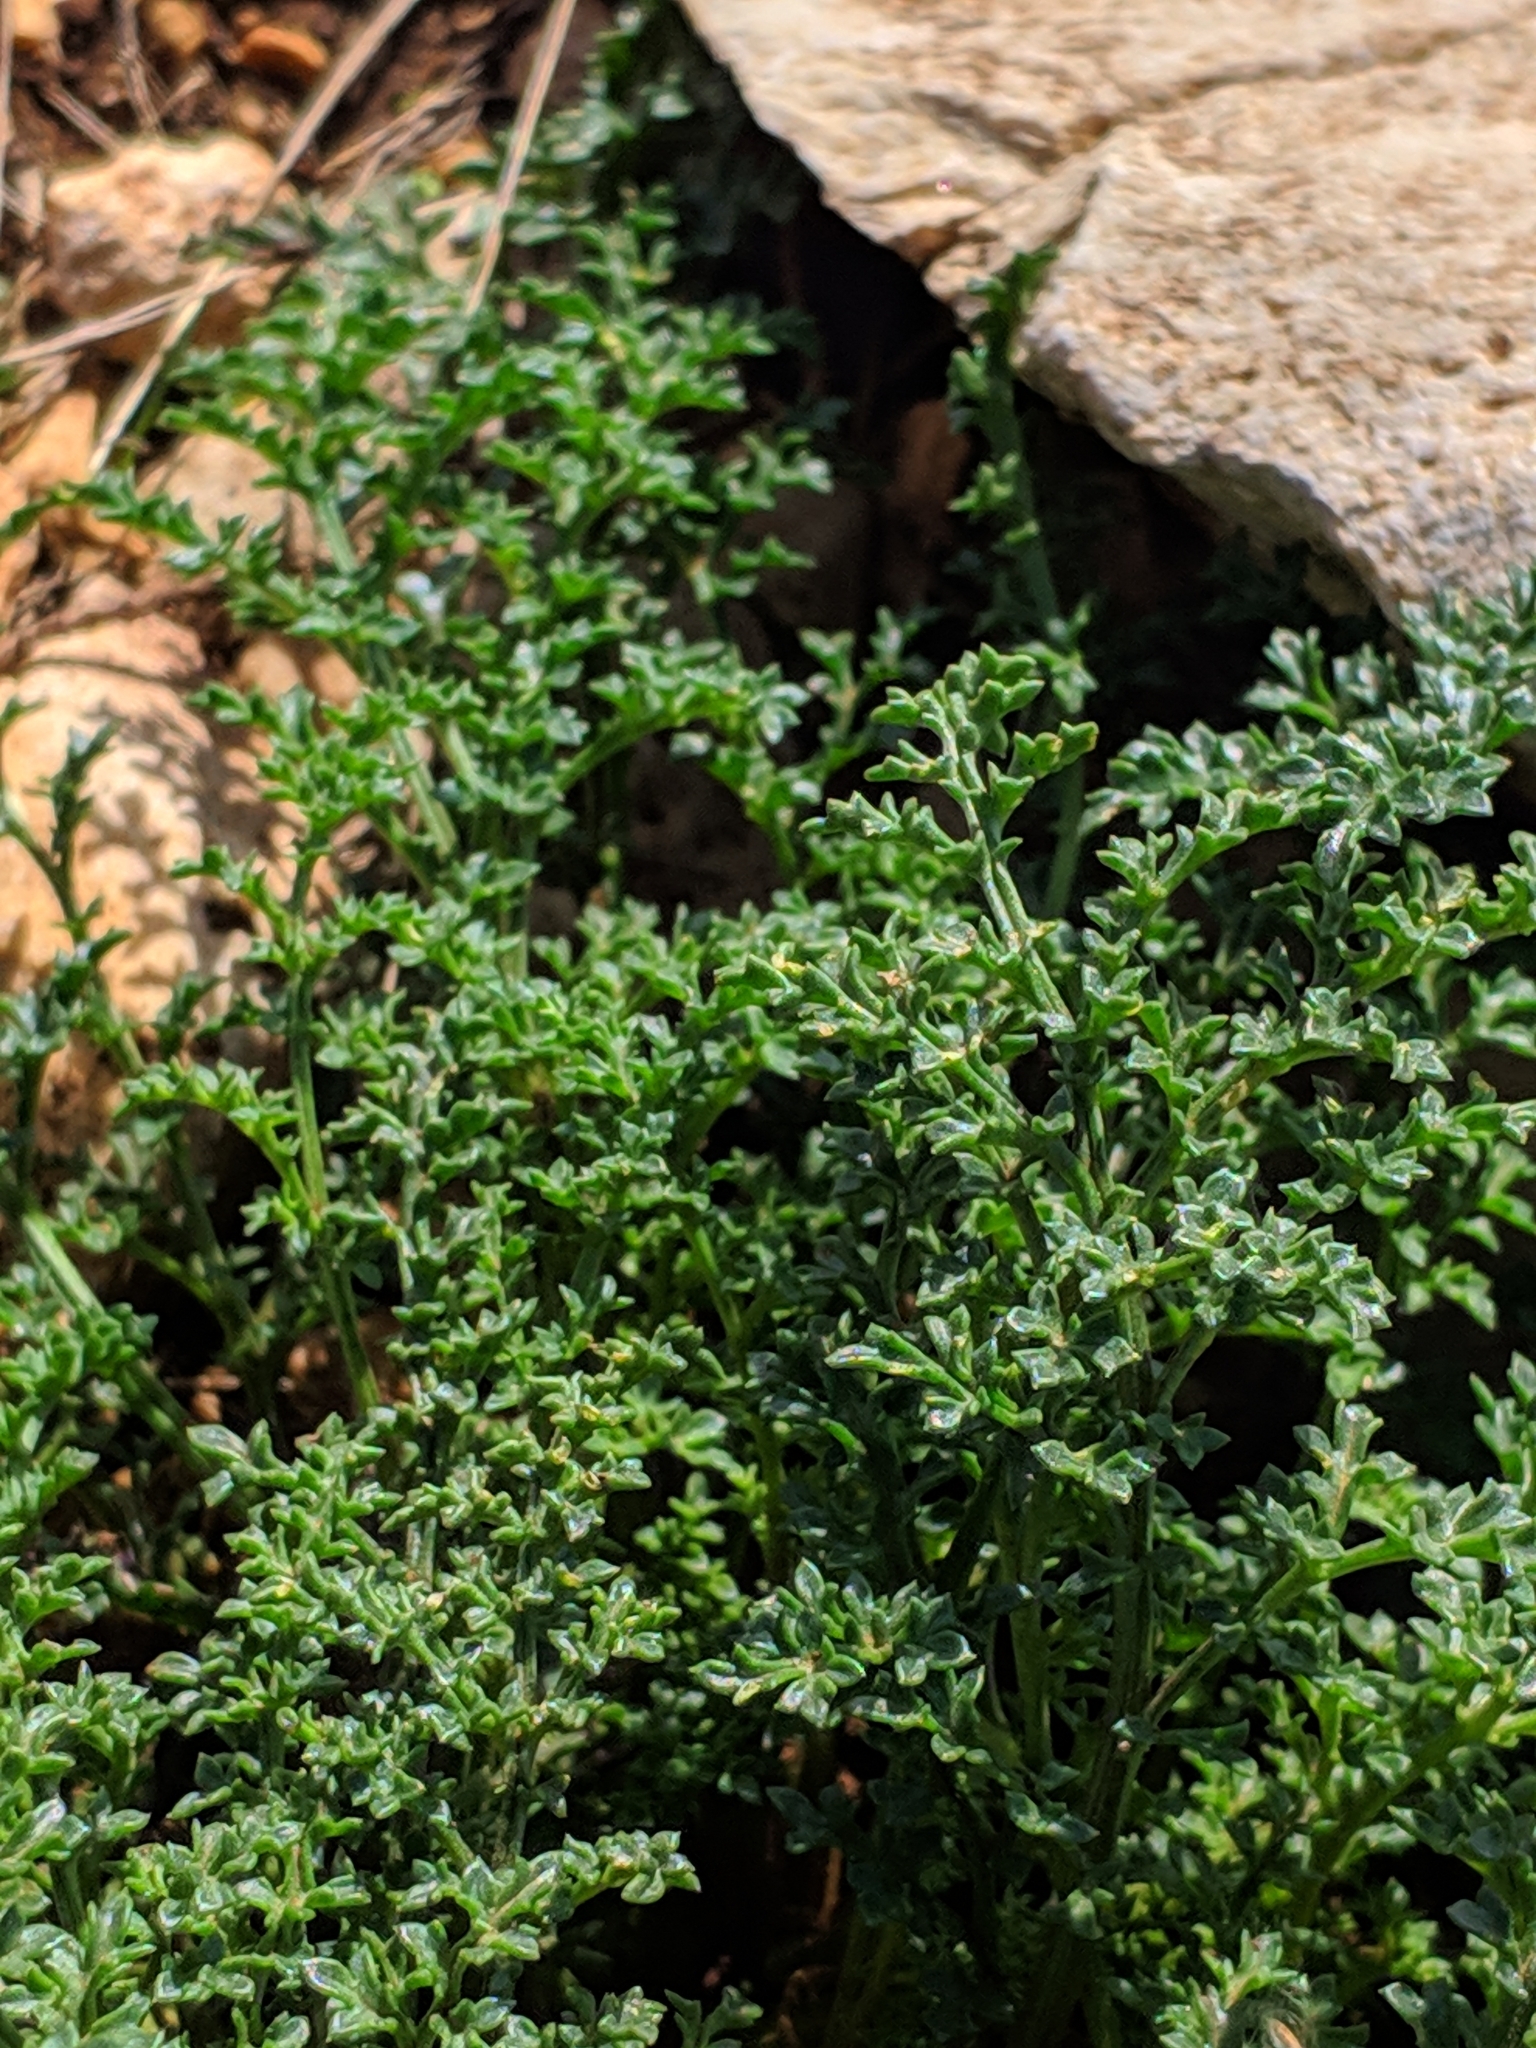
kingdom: Plantae
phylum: Tracheophyta
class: Magnoliopsida
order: Lamiales
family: Scrophulariaceae
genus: Scrophularia
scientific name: Scrophularia crithmifolia
